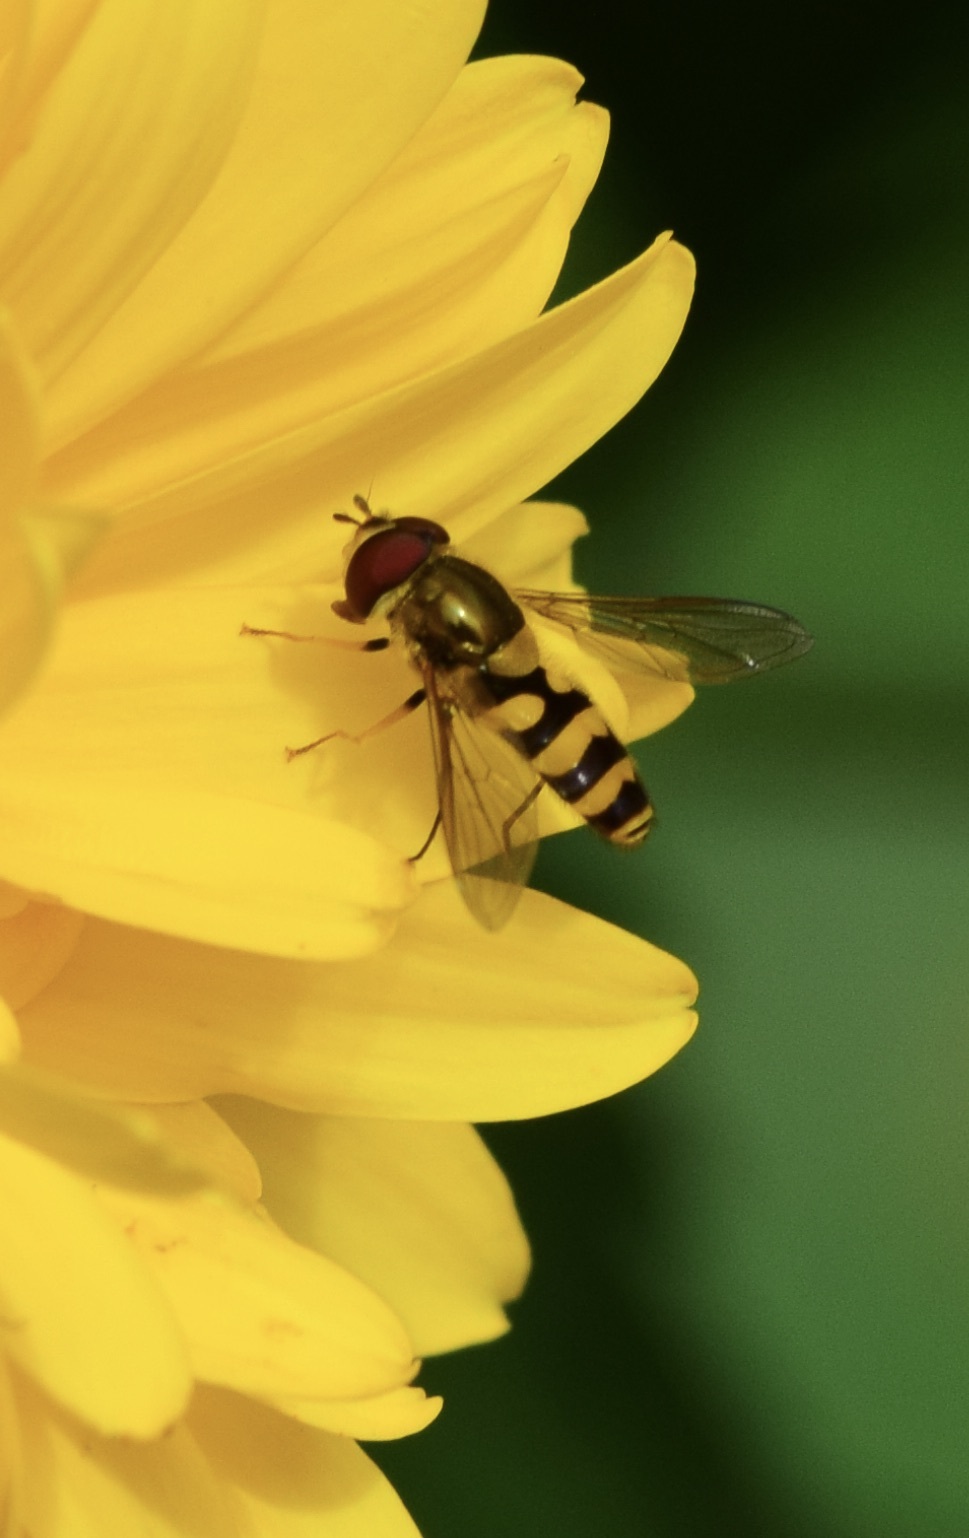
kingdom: Animalia
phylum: Arthropoda
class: Insecta
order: Diptera
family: Syrphidae
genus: Syrphus
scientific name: Syrphus
